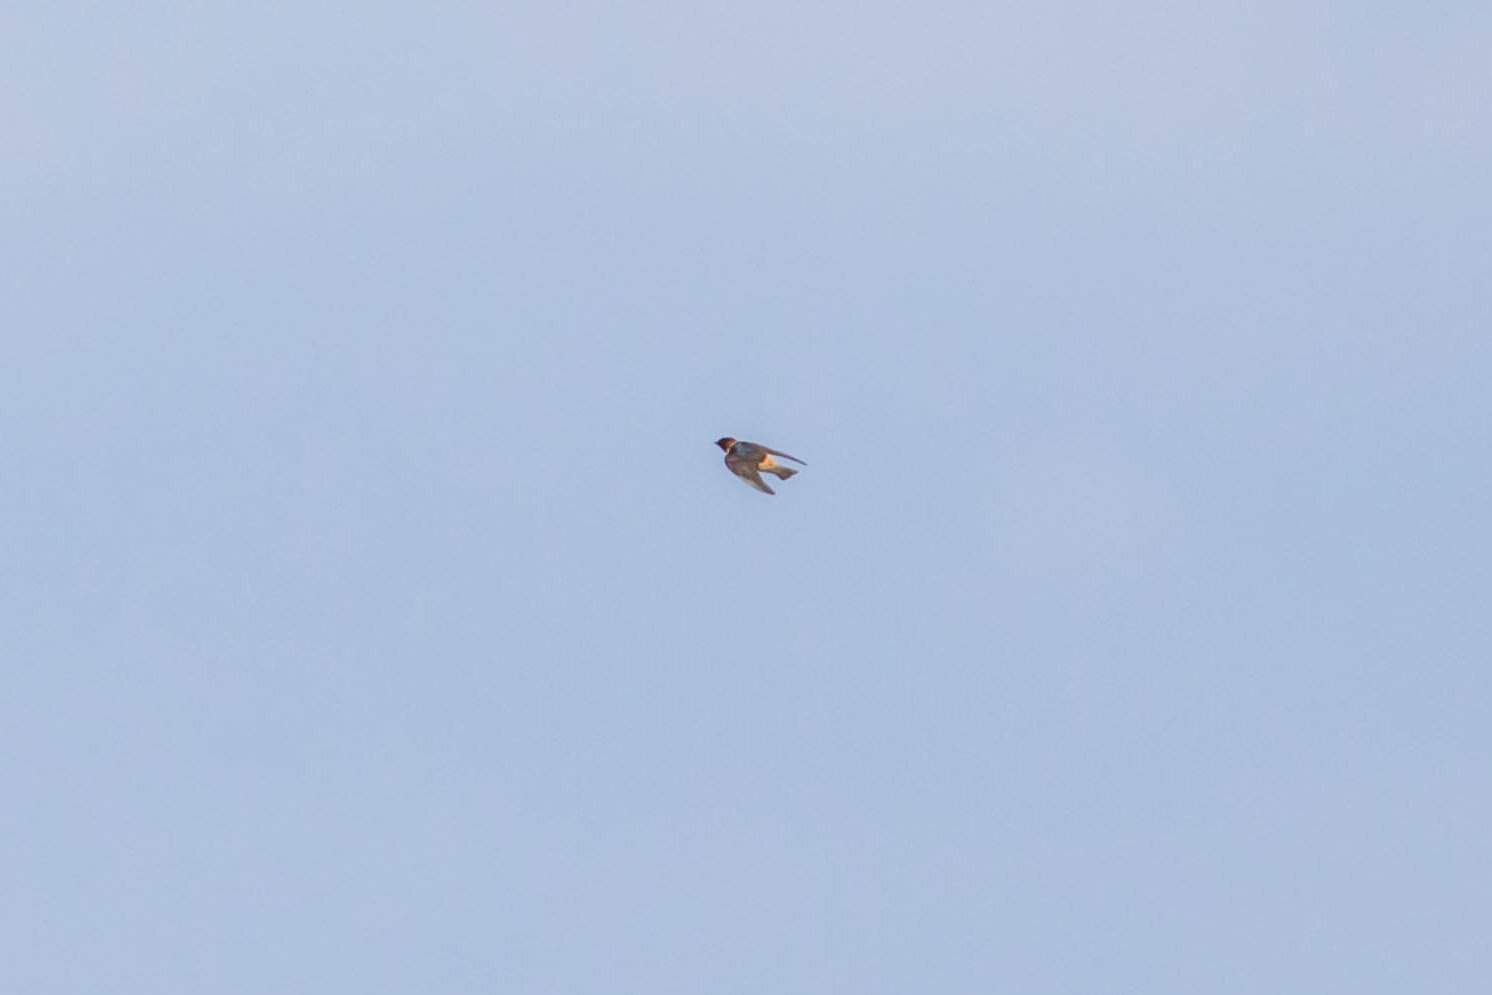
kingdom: Animalia
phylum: Chordata
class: Aves
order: Passeriformes
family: Hirundinidae
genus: Petrochelidon
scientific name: Petrochelidon pyrrhonota
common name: American cliff swallow
